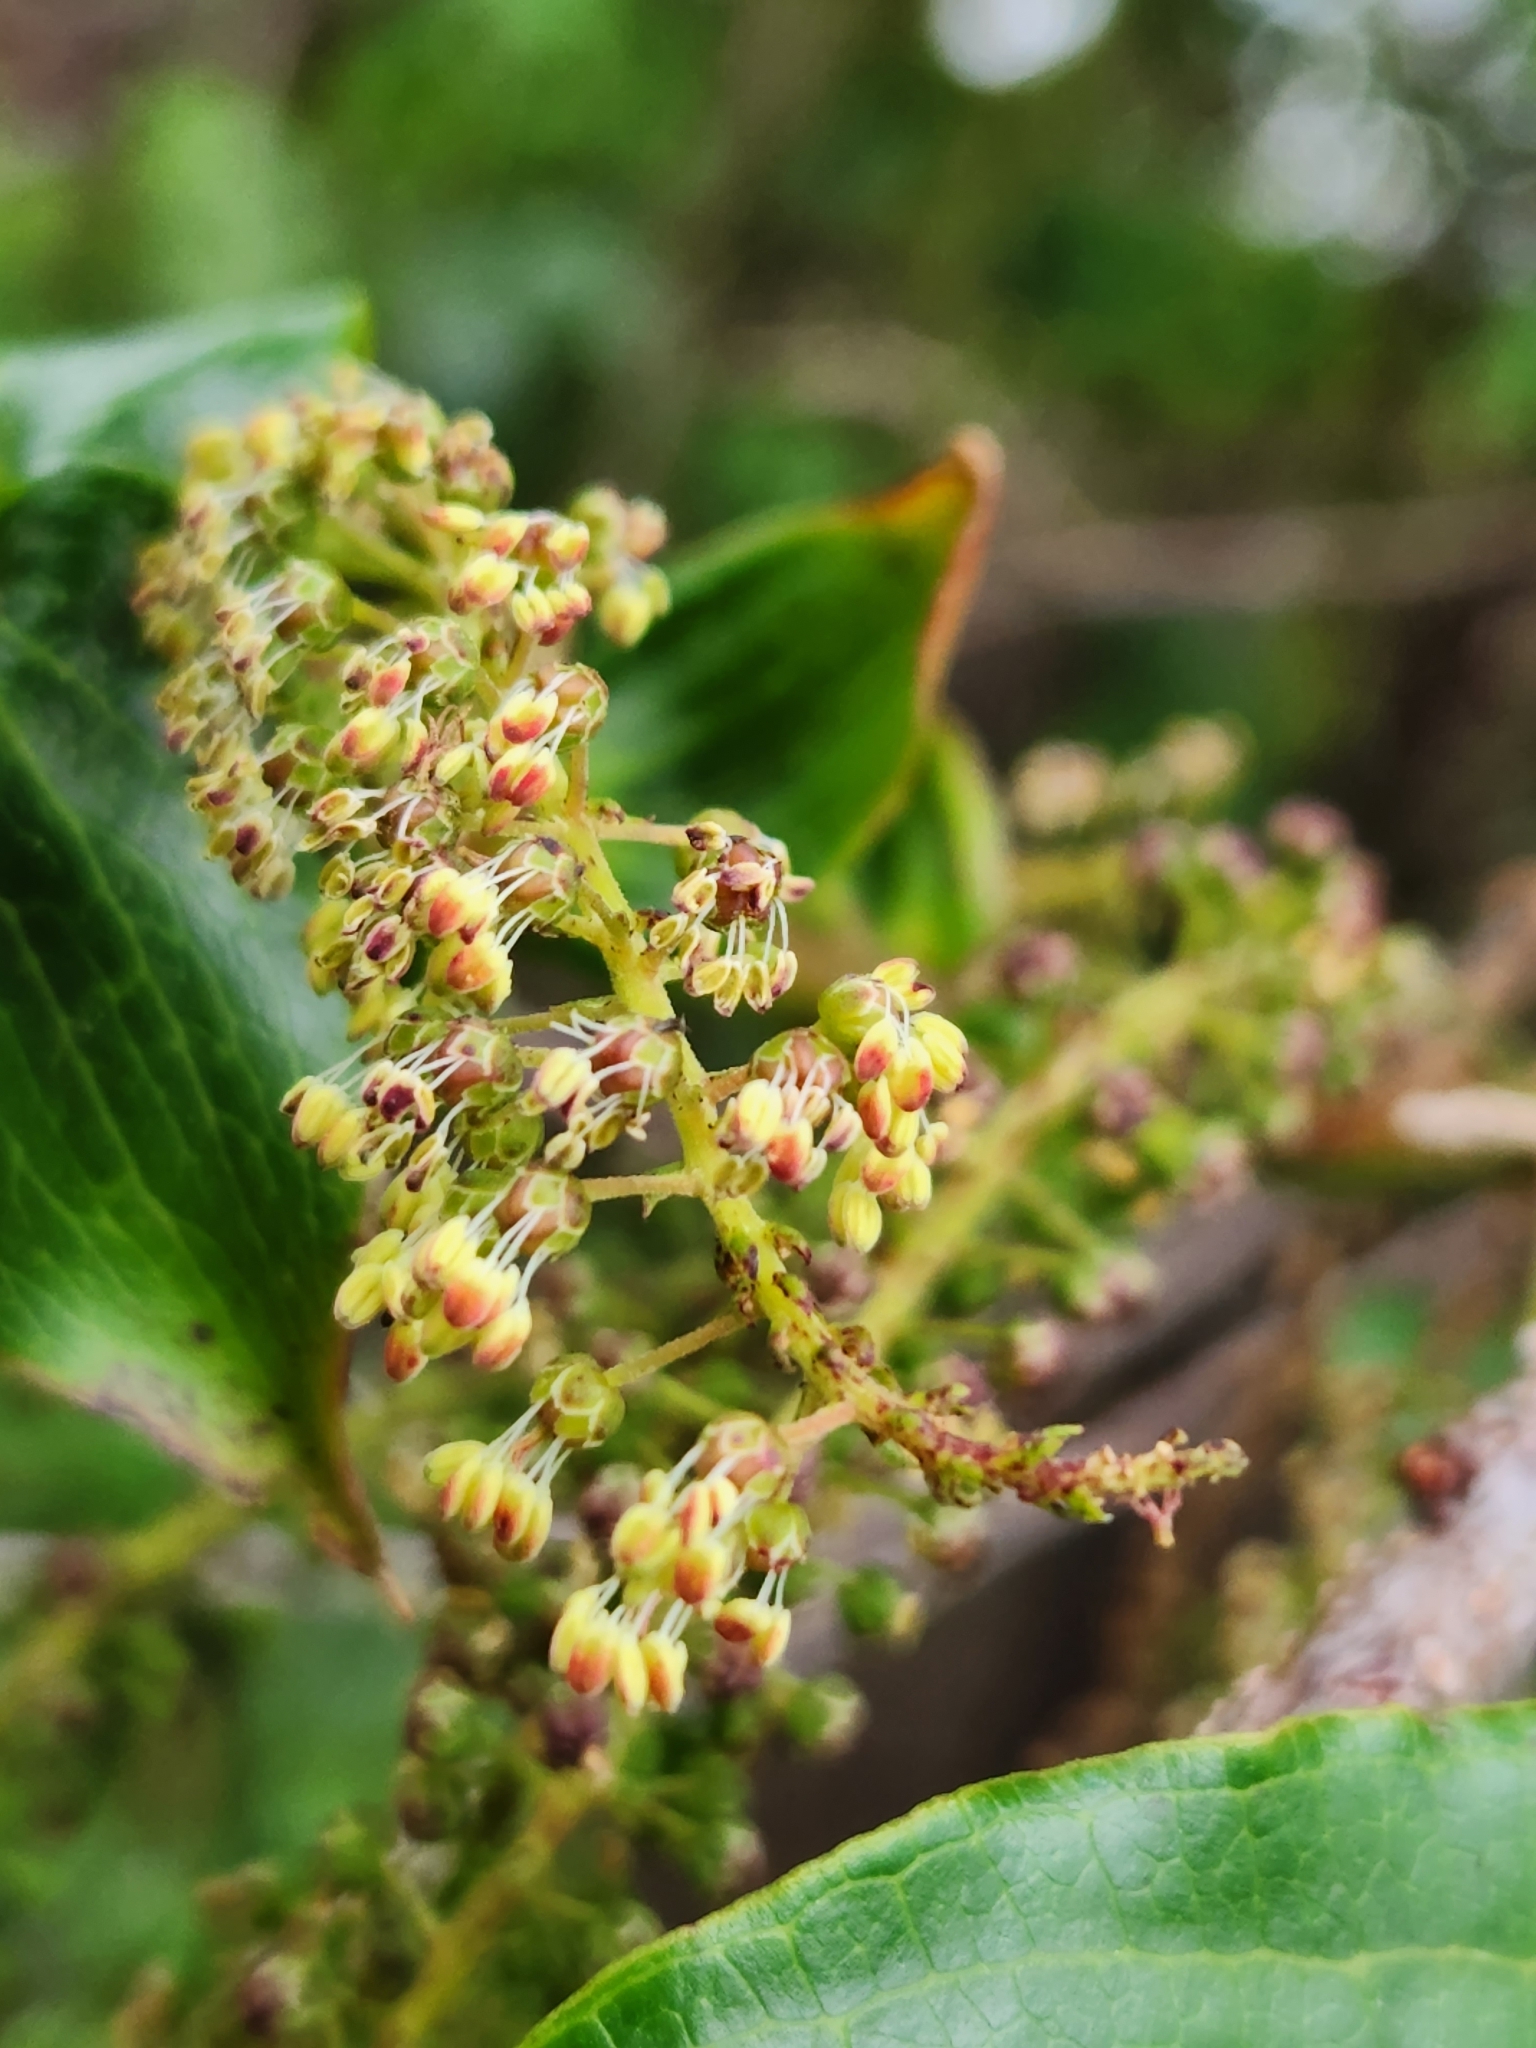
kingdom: Plantae
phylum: Tracheophyta
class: Magnoliopsida
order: Cucurbitales
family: Coriariaceae
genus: Coriaria
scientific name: Coriaria arborea
